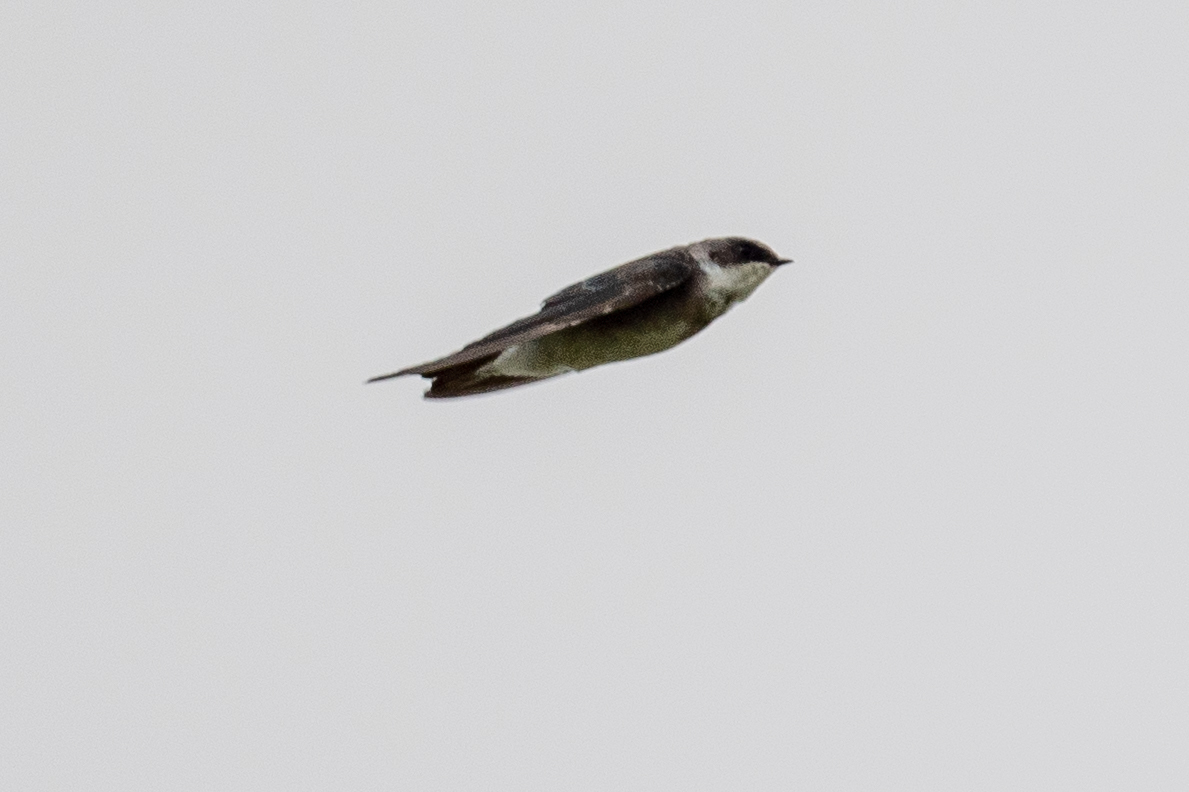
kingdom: Animalia
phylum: Chordata
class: Aves
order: Passeriformes
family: Hirundinidae
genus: Tachycineta
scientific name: Tachycineta thalassina
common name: Violet-green swallow
